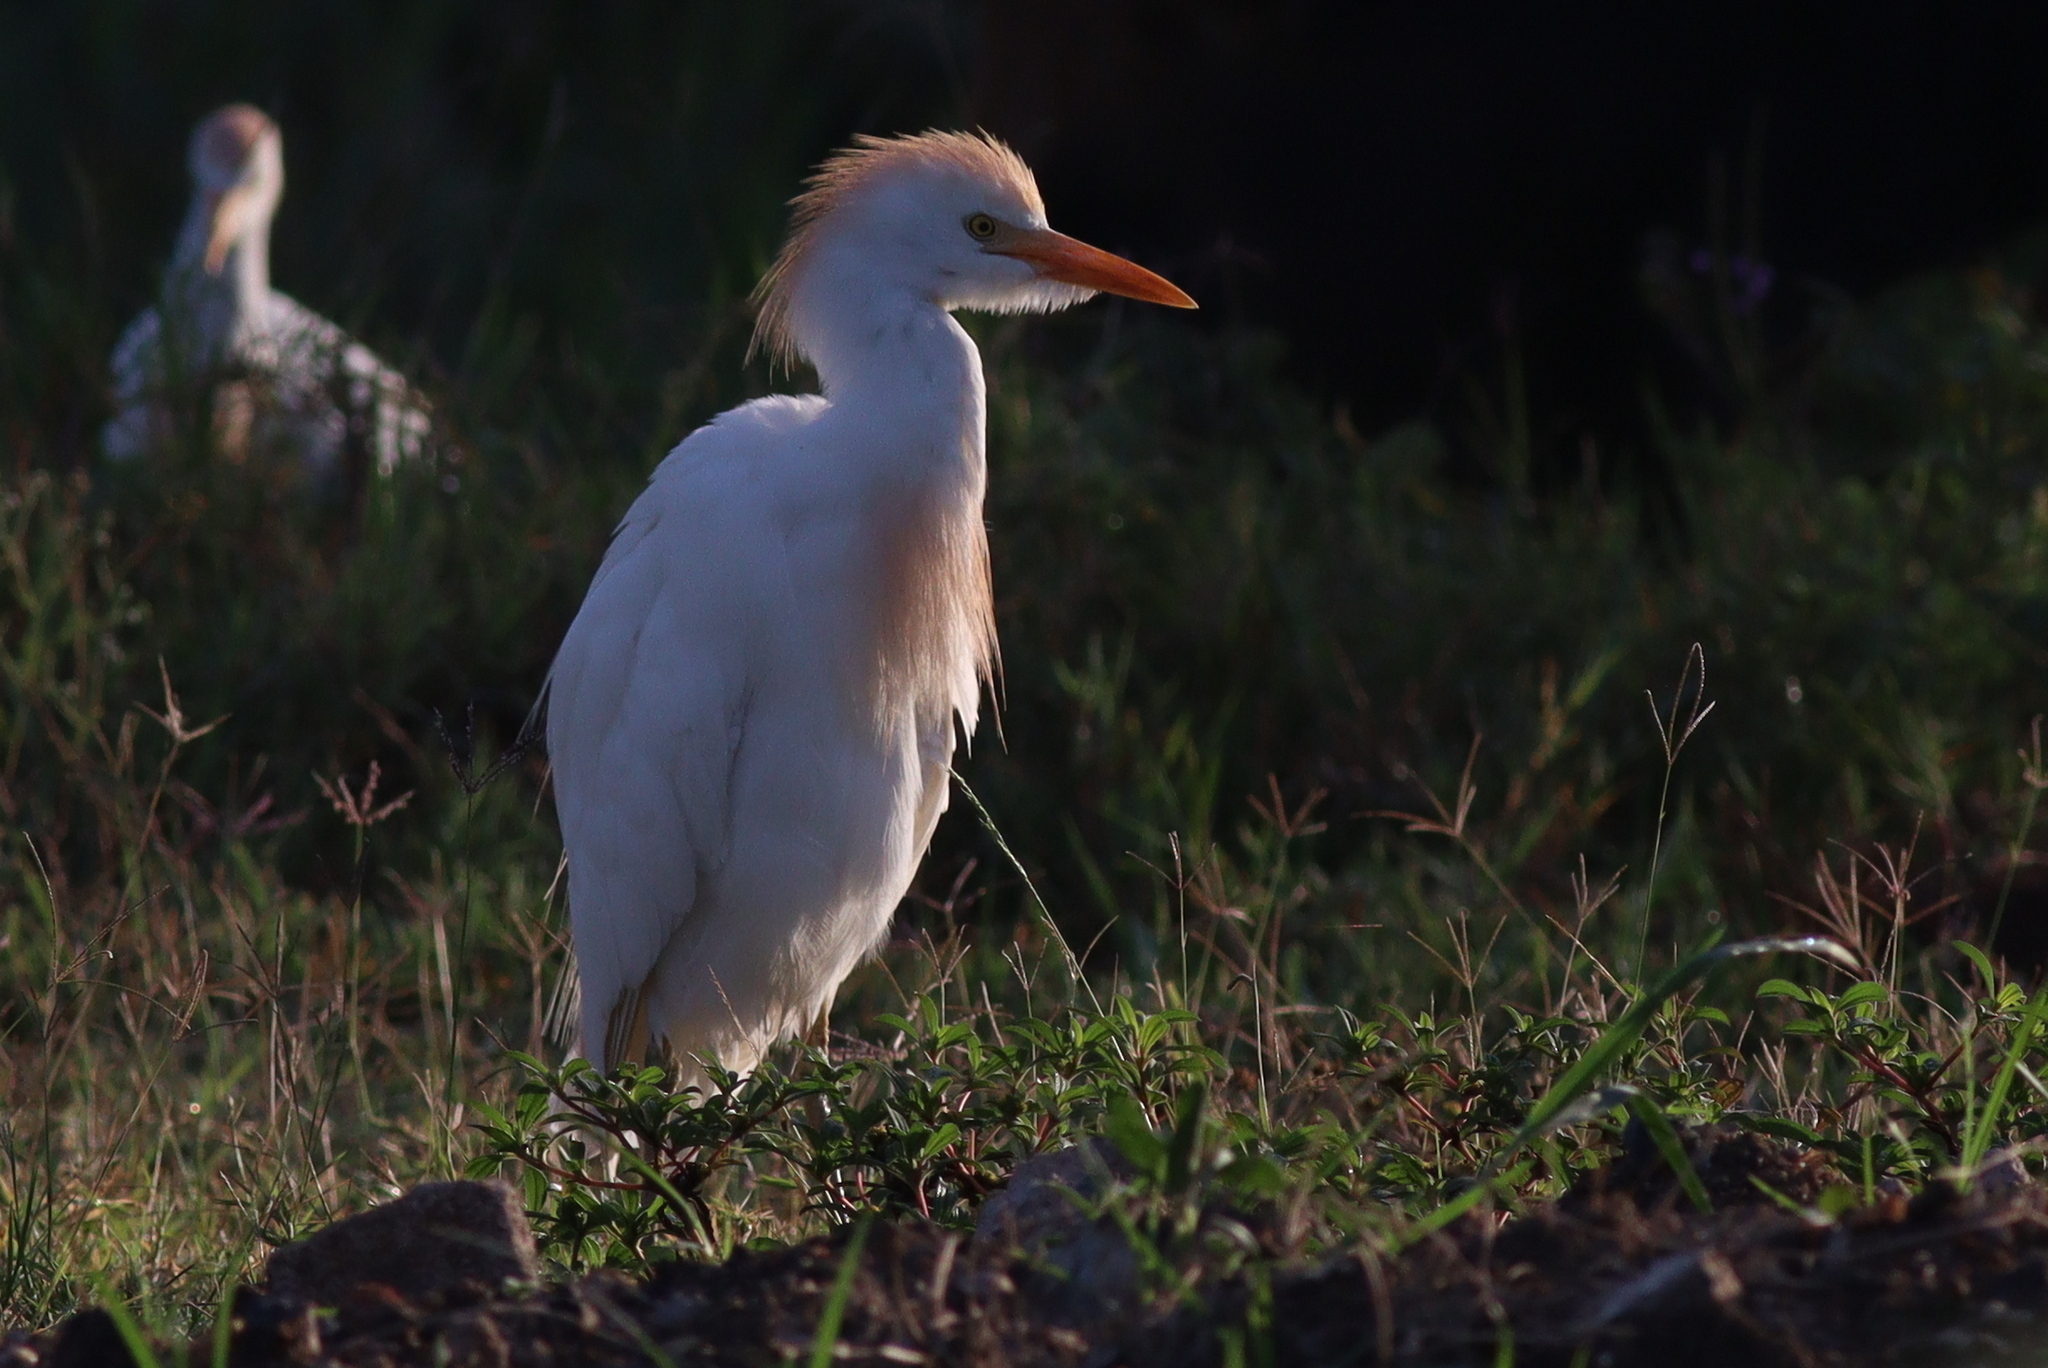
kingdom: Animalia
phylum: Chordata
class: Aves
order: Pelecaniformes
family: Ardeidae
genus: Bubulcus
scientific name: Bubulcus ibis
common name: Cattle egret
